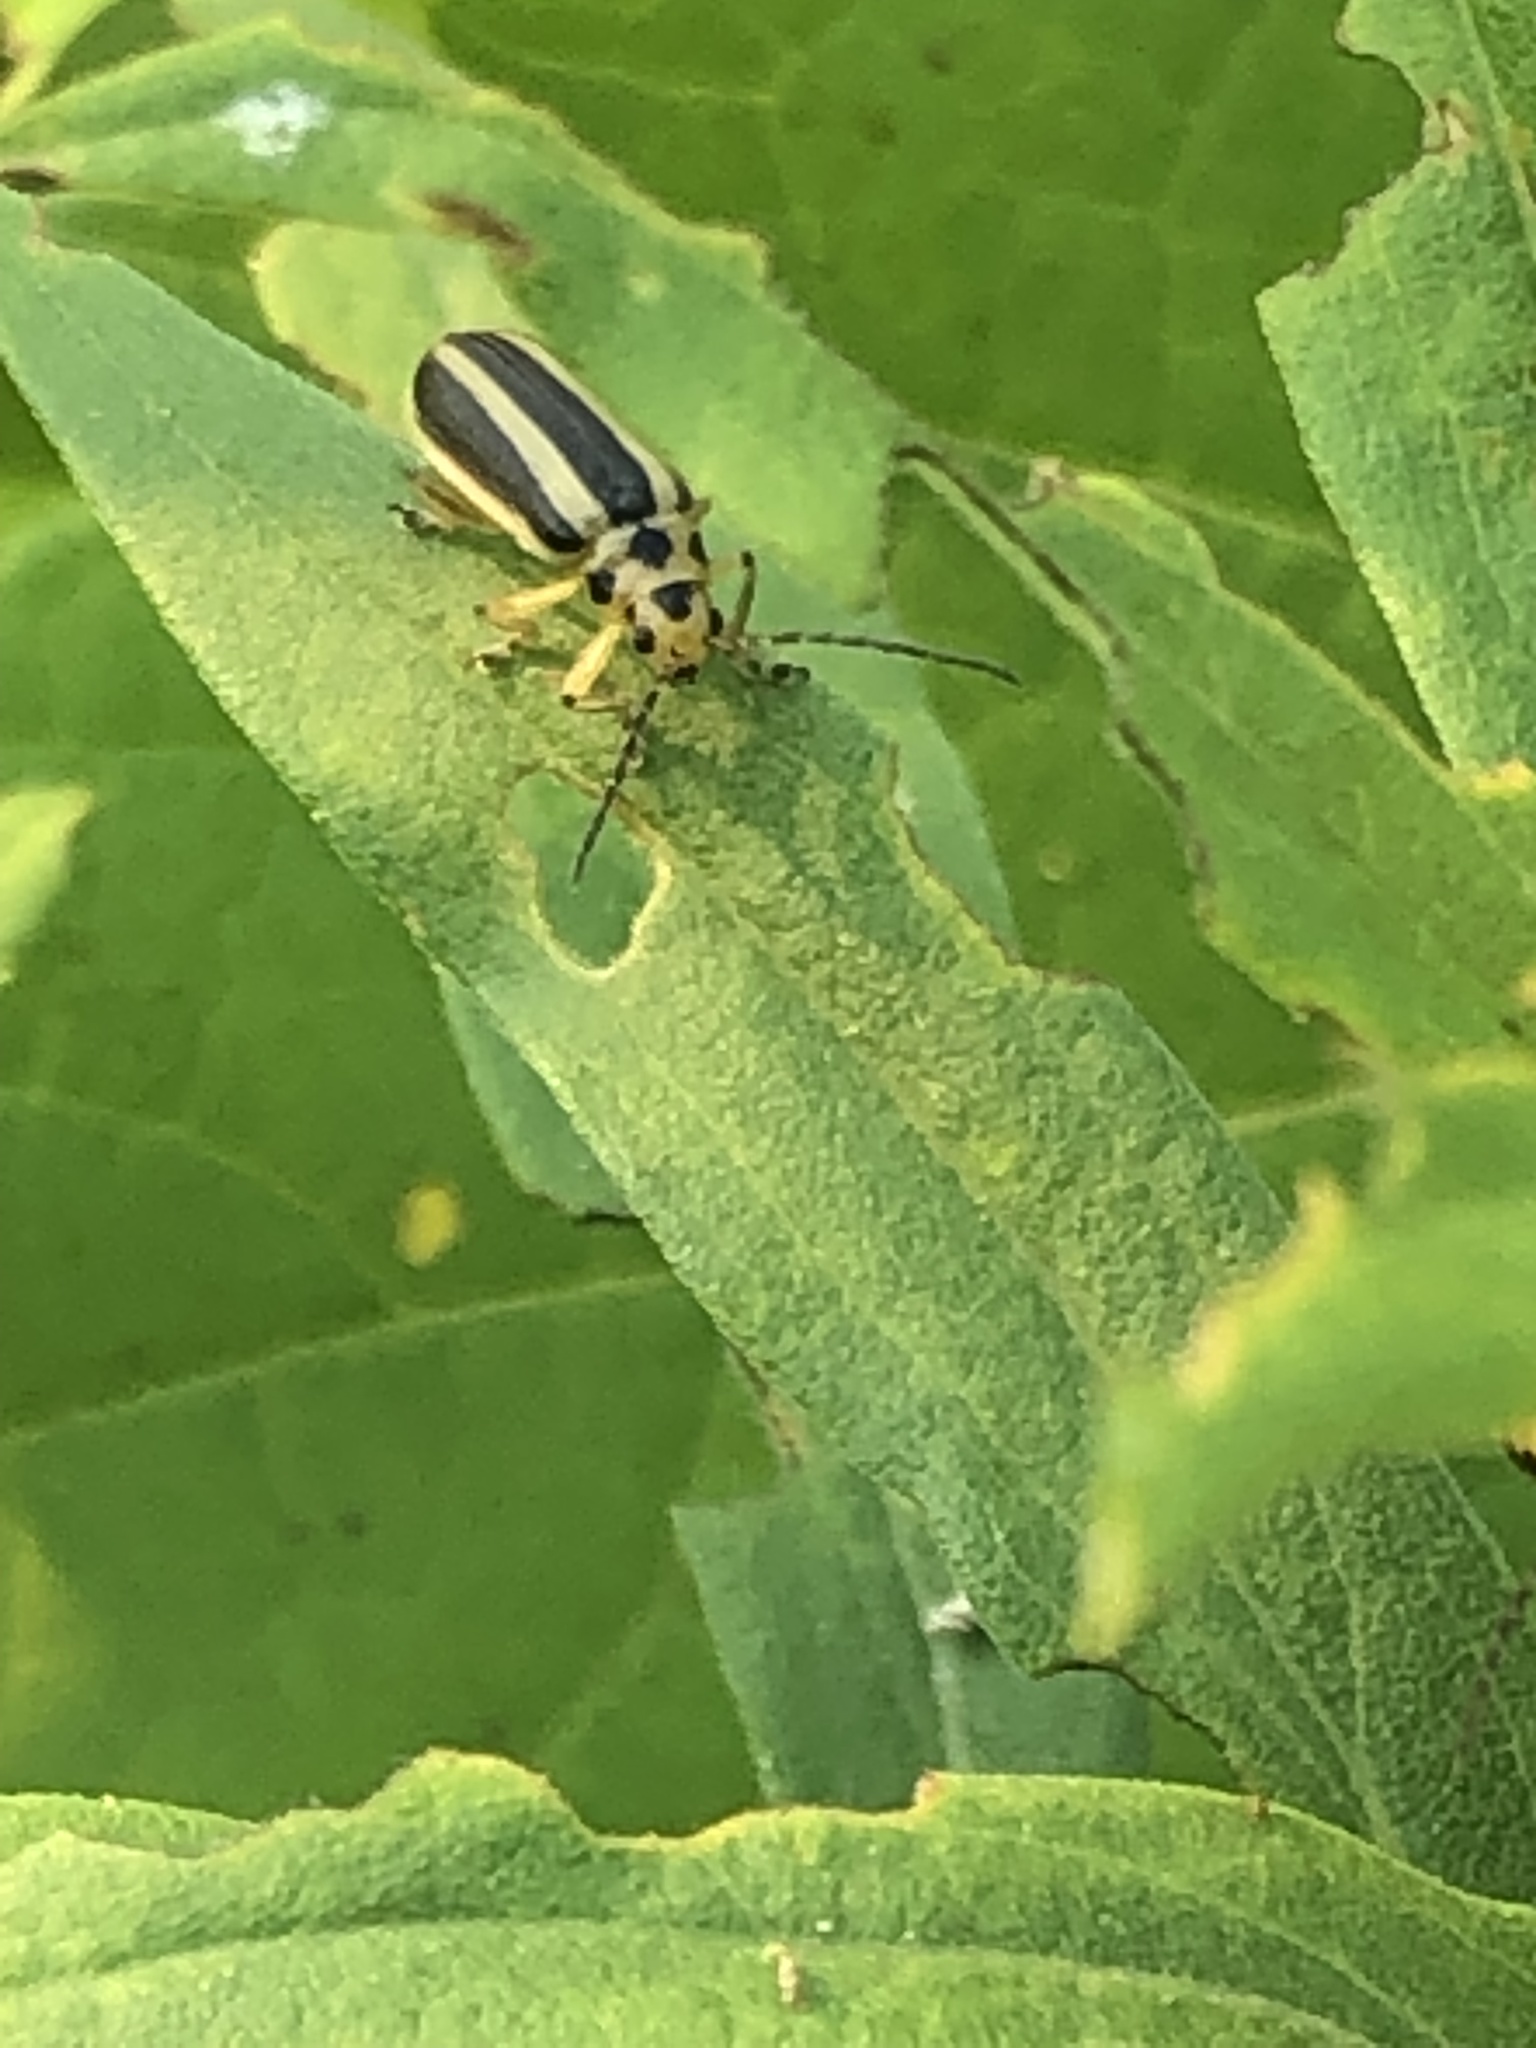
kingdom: Animalia
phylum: Arthropoda
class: Insecta
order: Coleoptera
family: Chrysomelidae
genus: Trirhabda
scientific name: Trirhabda canadensis
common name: Goldenrod leaf beetle
